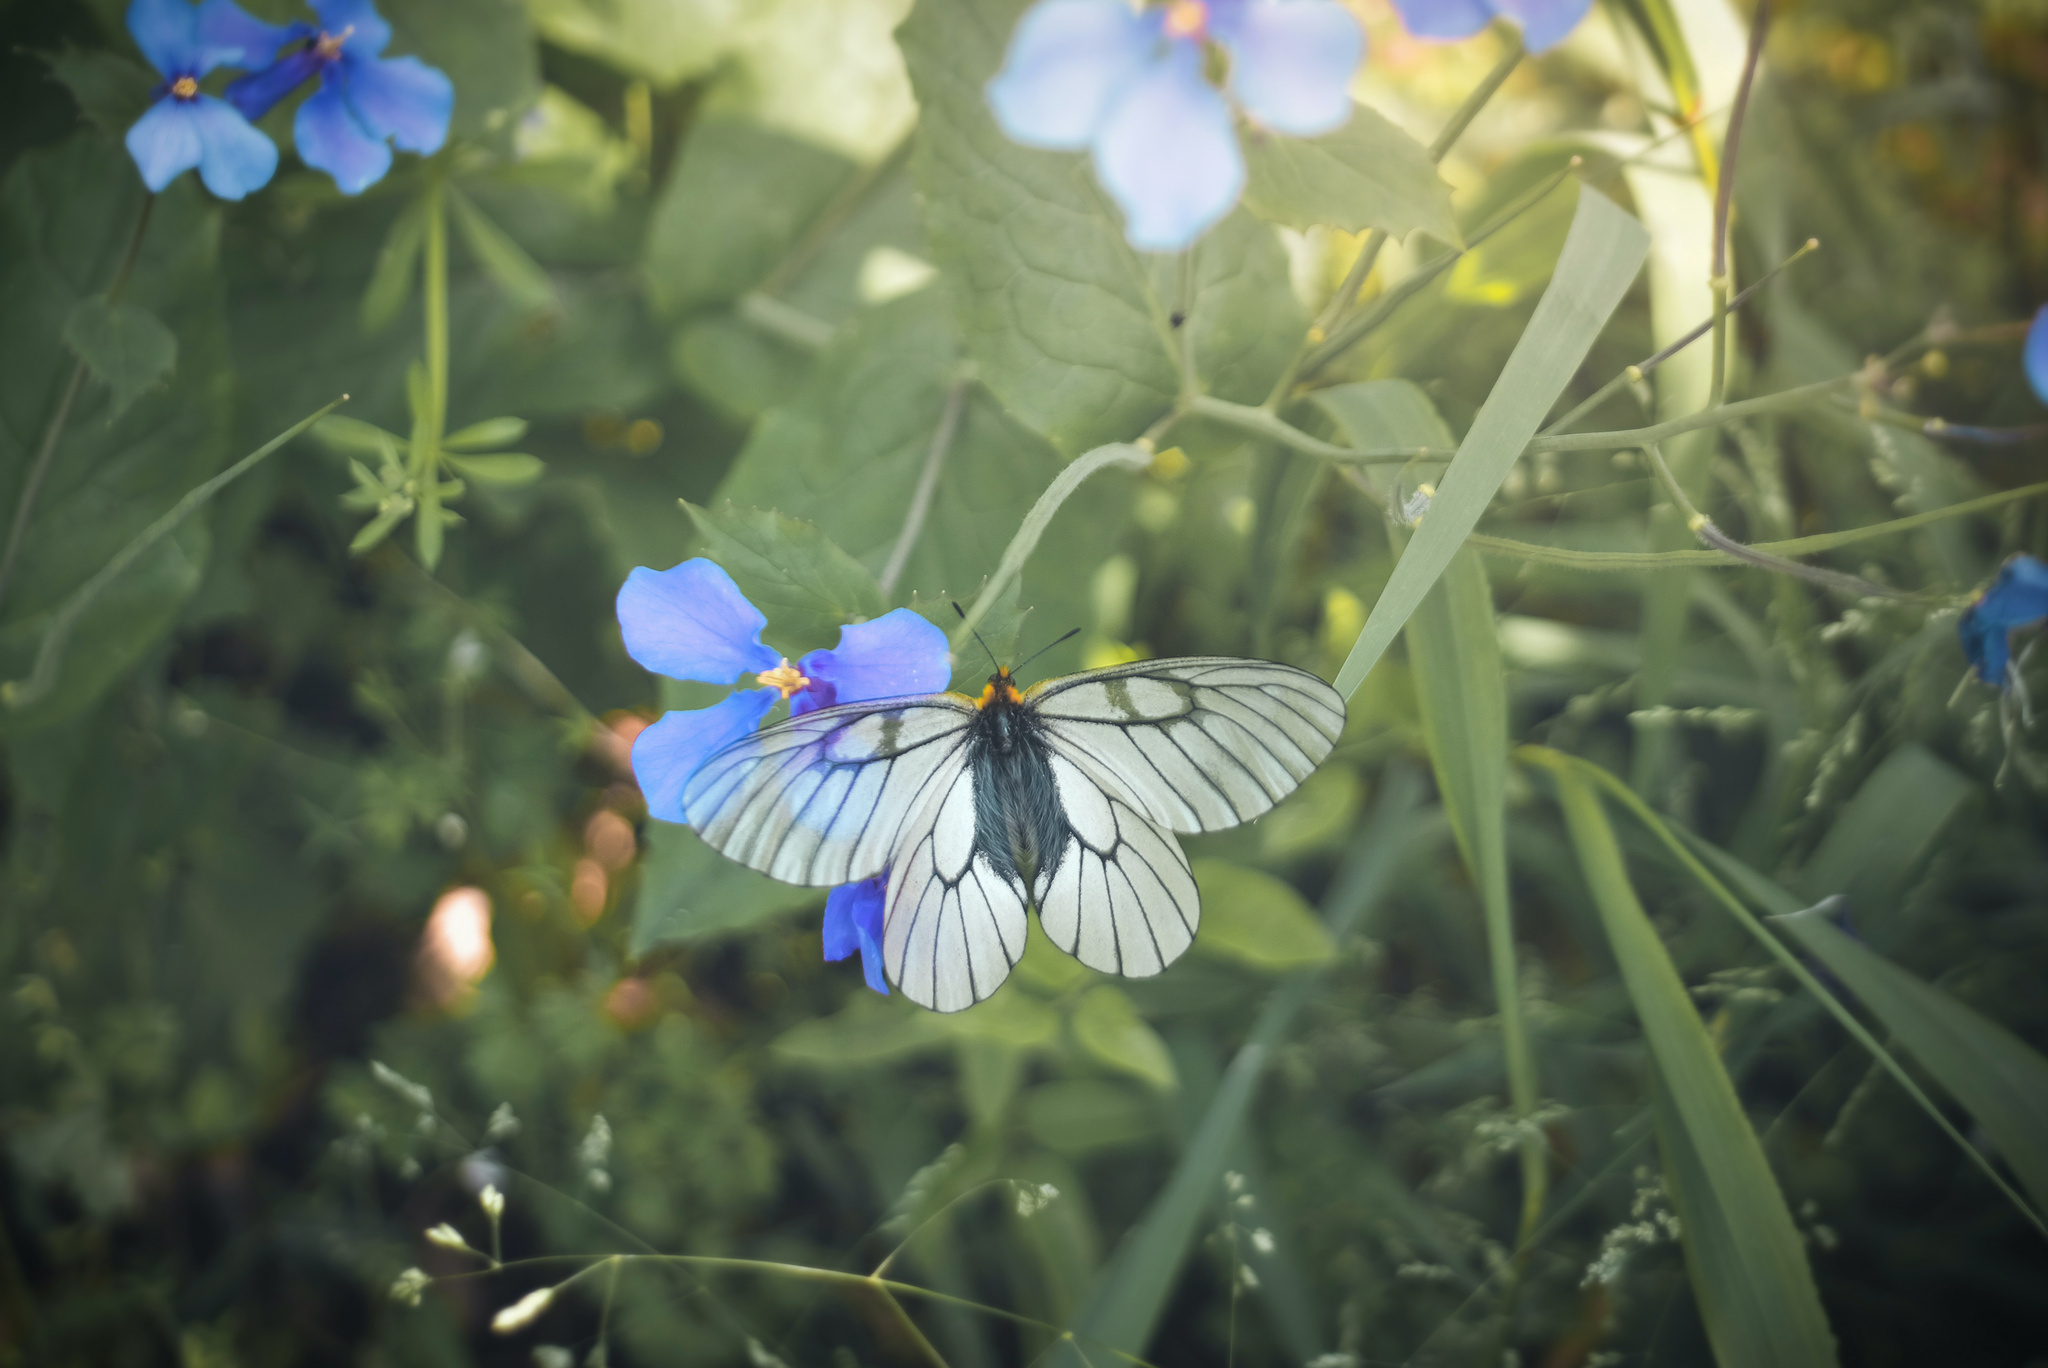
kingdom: Animalia
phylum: Arthropoda
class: Insecta
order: Lepidoptera
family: Papilionidae
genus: Parnassius
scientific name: Parnassius glacialis
